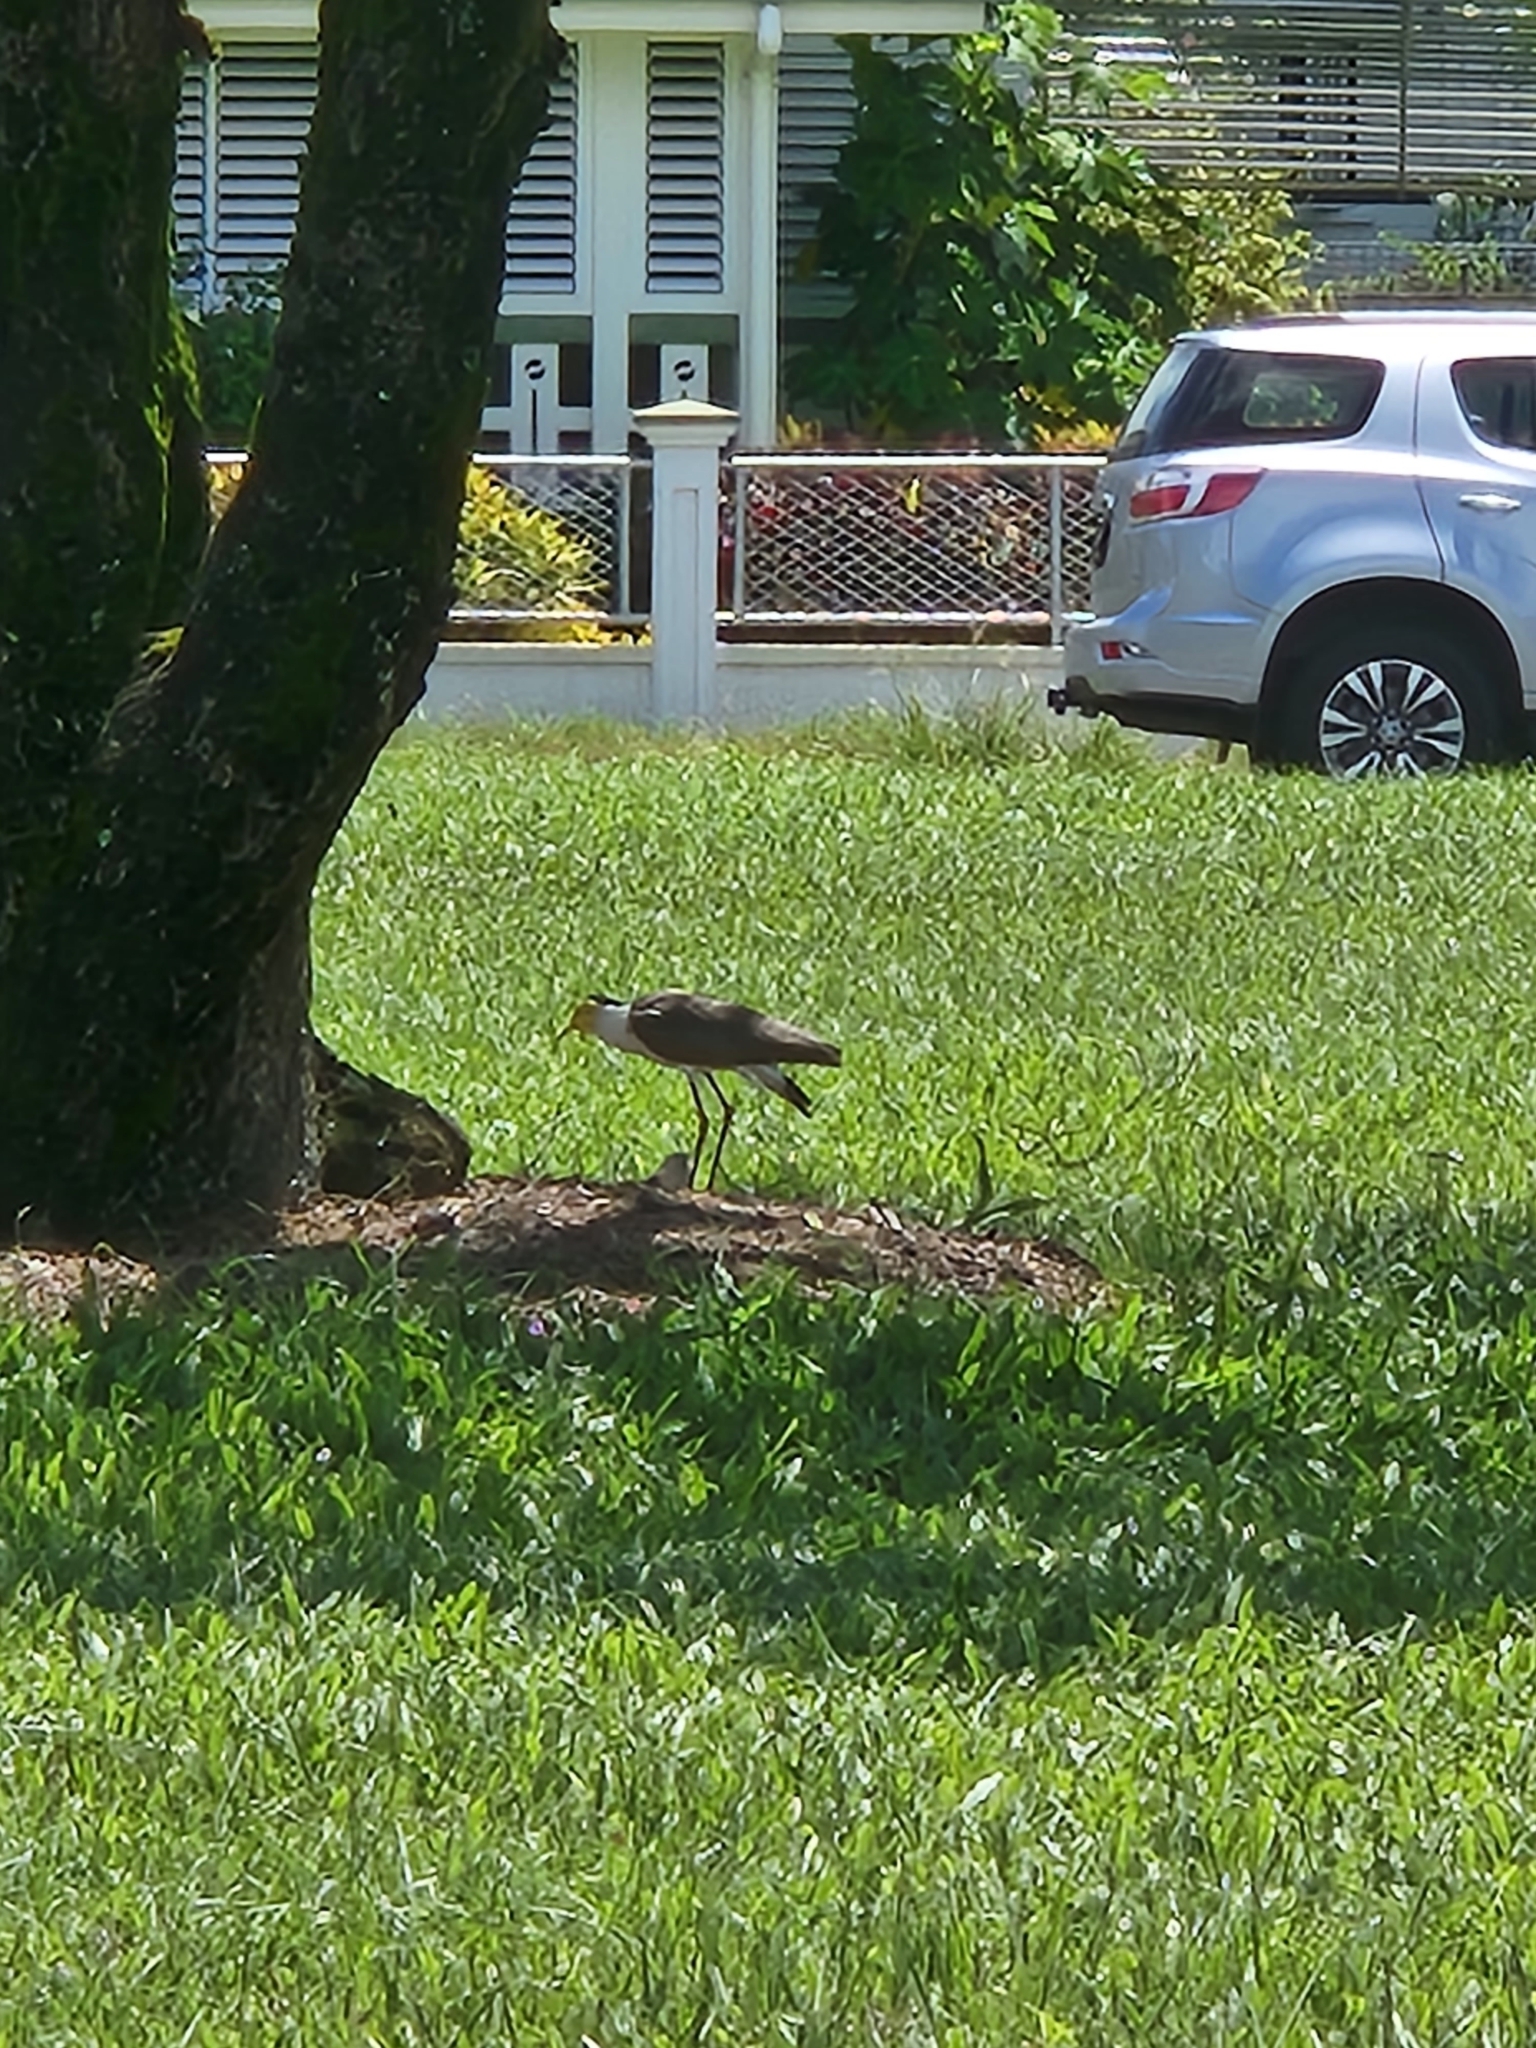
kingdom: Animalia
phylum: Chordata
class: Aves
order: Charadriiformes
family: Charadriidae
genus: Vanellus
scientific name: Vanellus miles
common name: Masked lapwing
